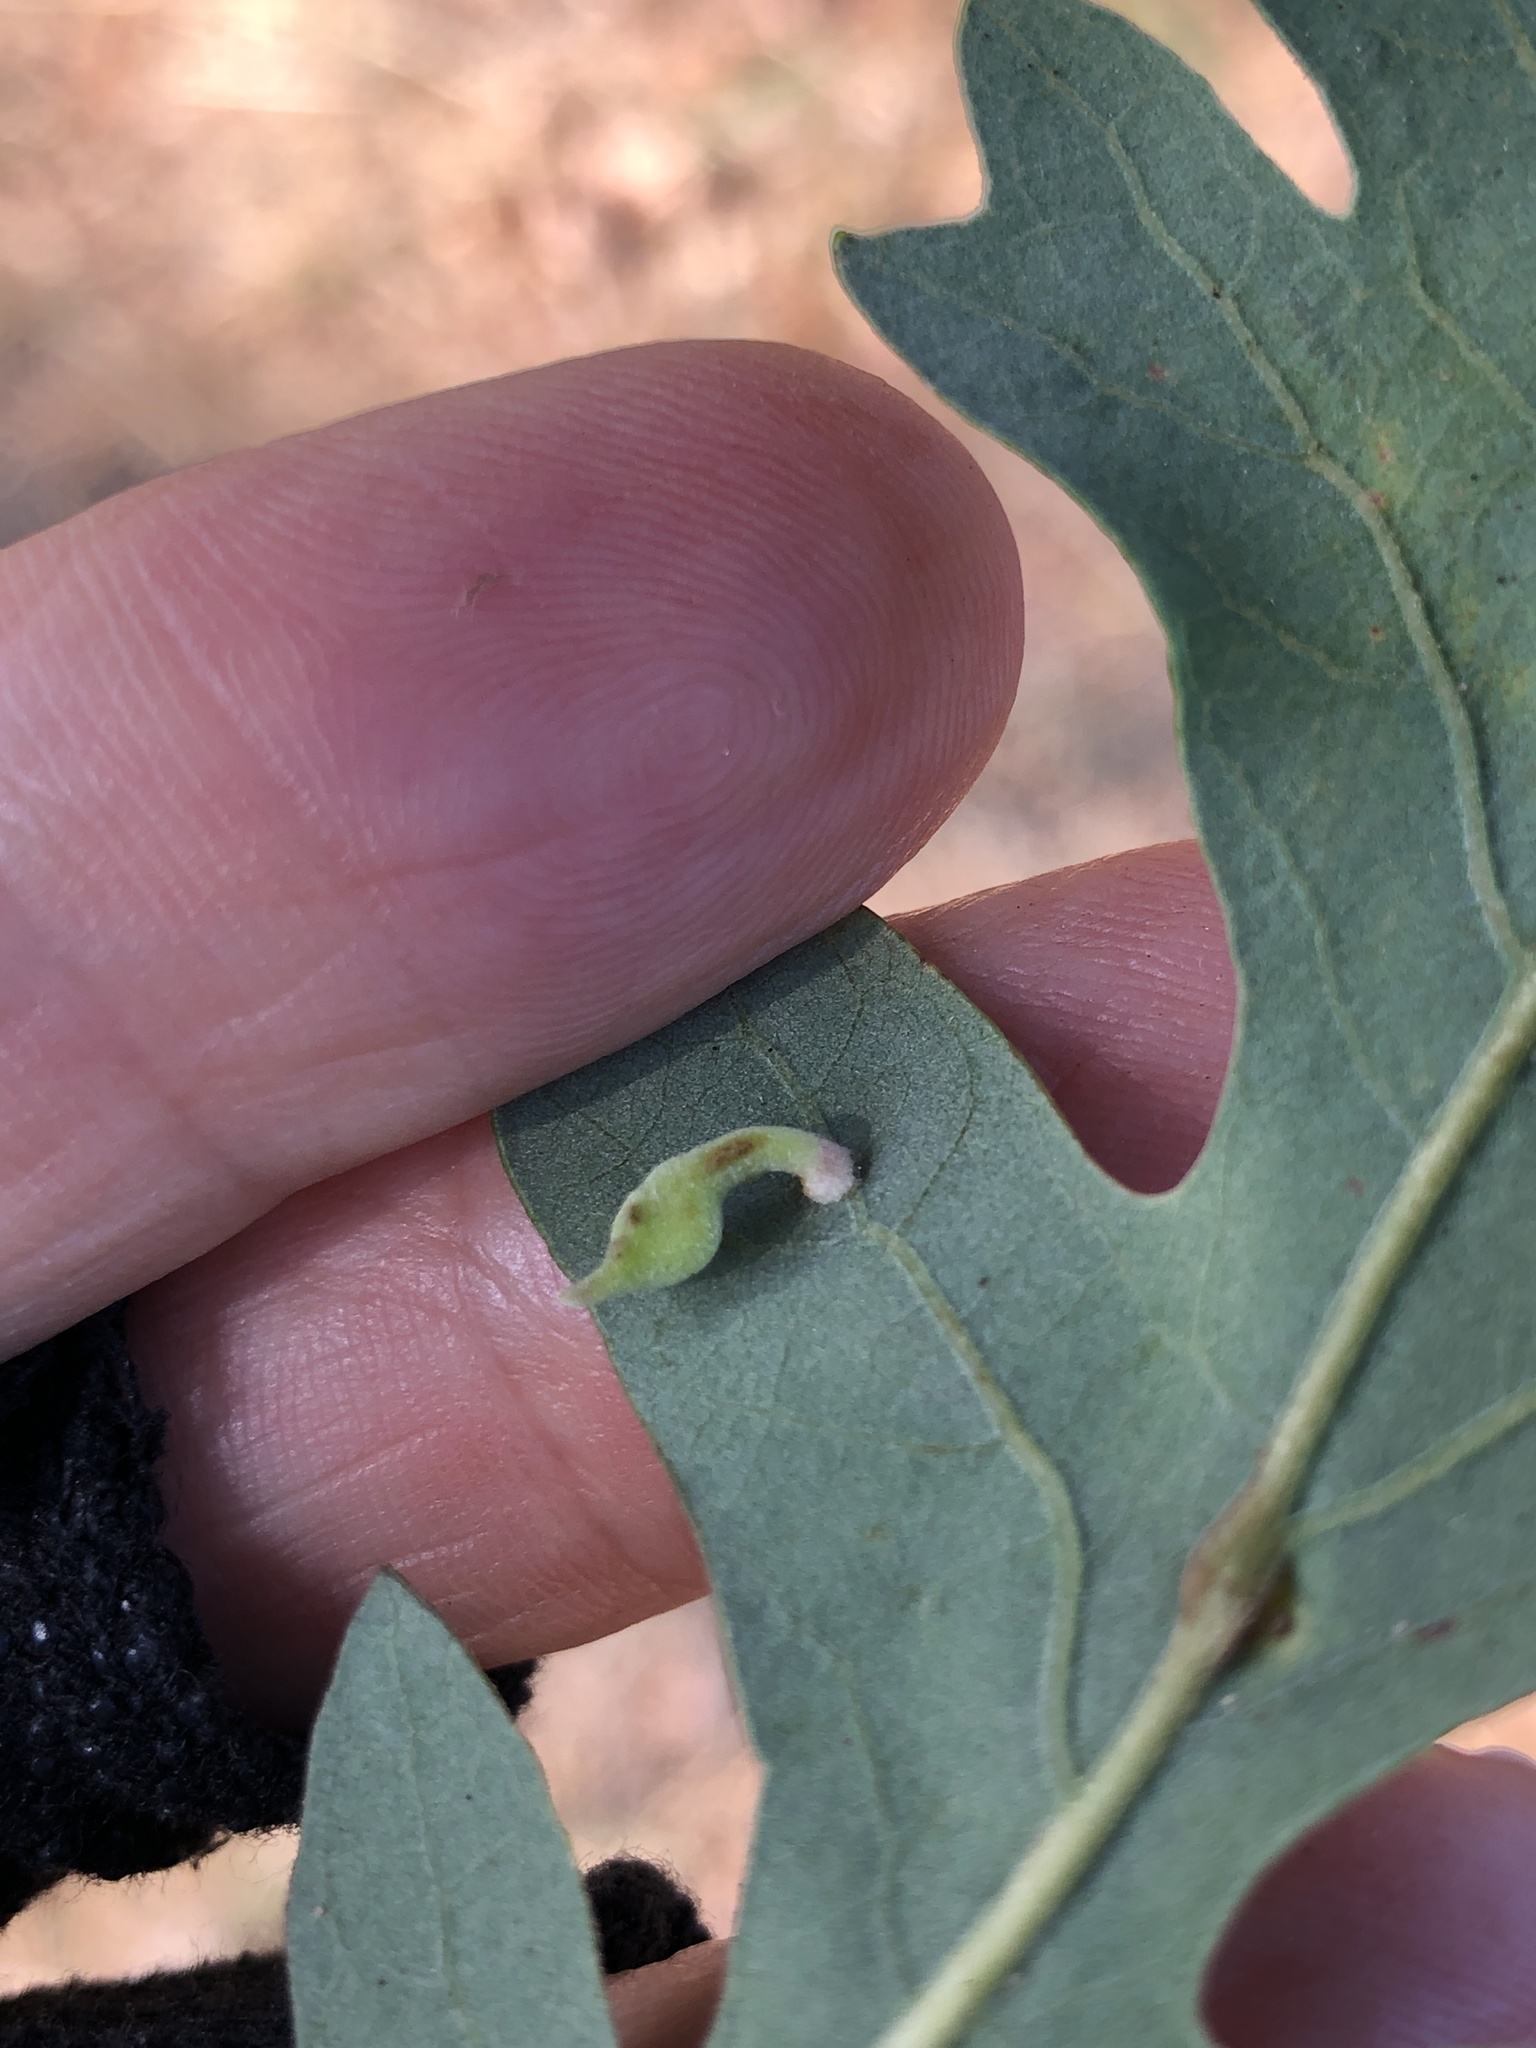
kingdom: Animalia
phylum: Arthropoda
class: Insecta
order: Hymenoptera
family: Cynipidae
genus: Atrusca
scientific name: Atrusca
